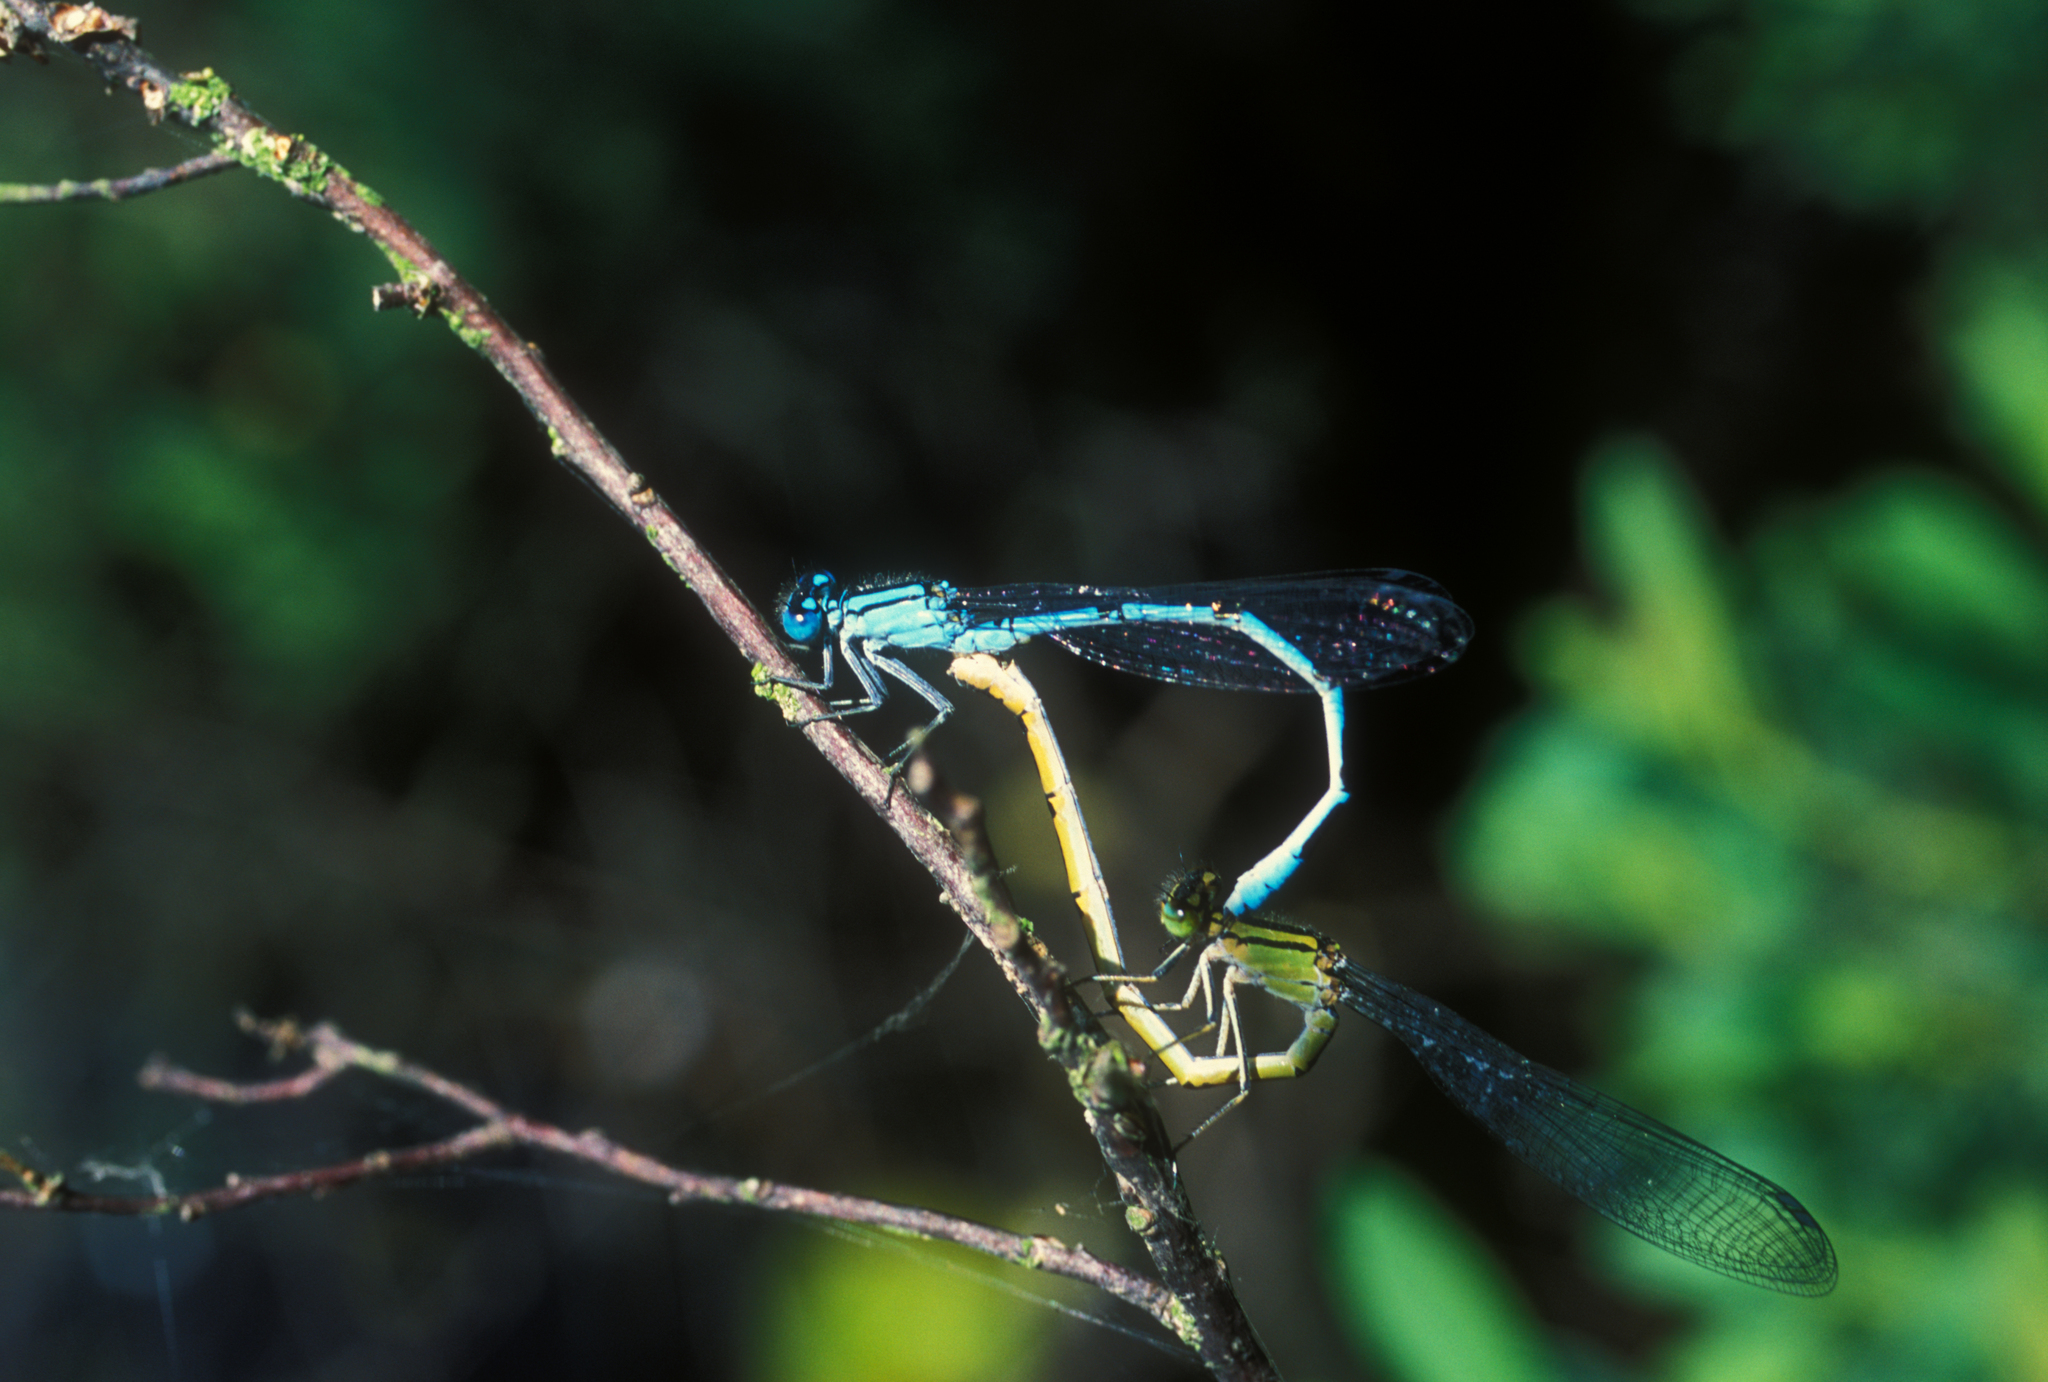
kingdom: Animalia
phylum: Arthropoda
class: Insecta
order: Odonata
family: Coenagrionidae
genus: Enallagma
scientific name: Enallagma cyathigerum
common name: Common blue damselfly
